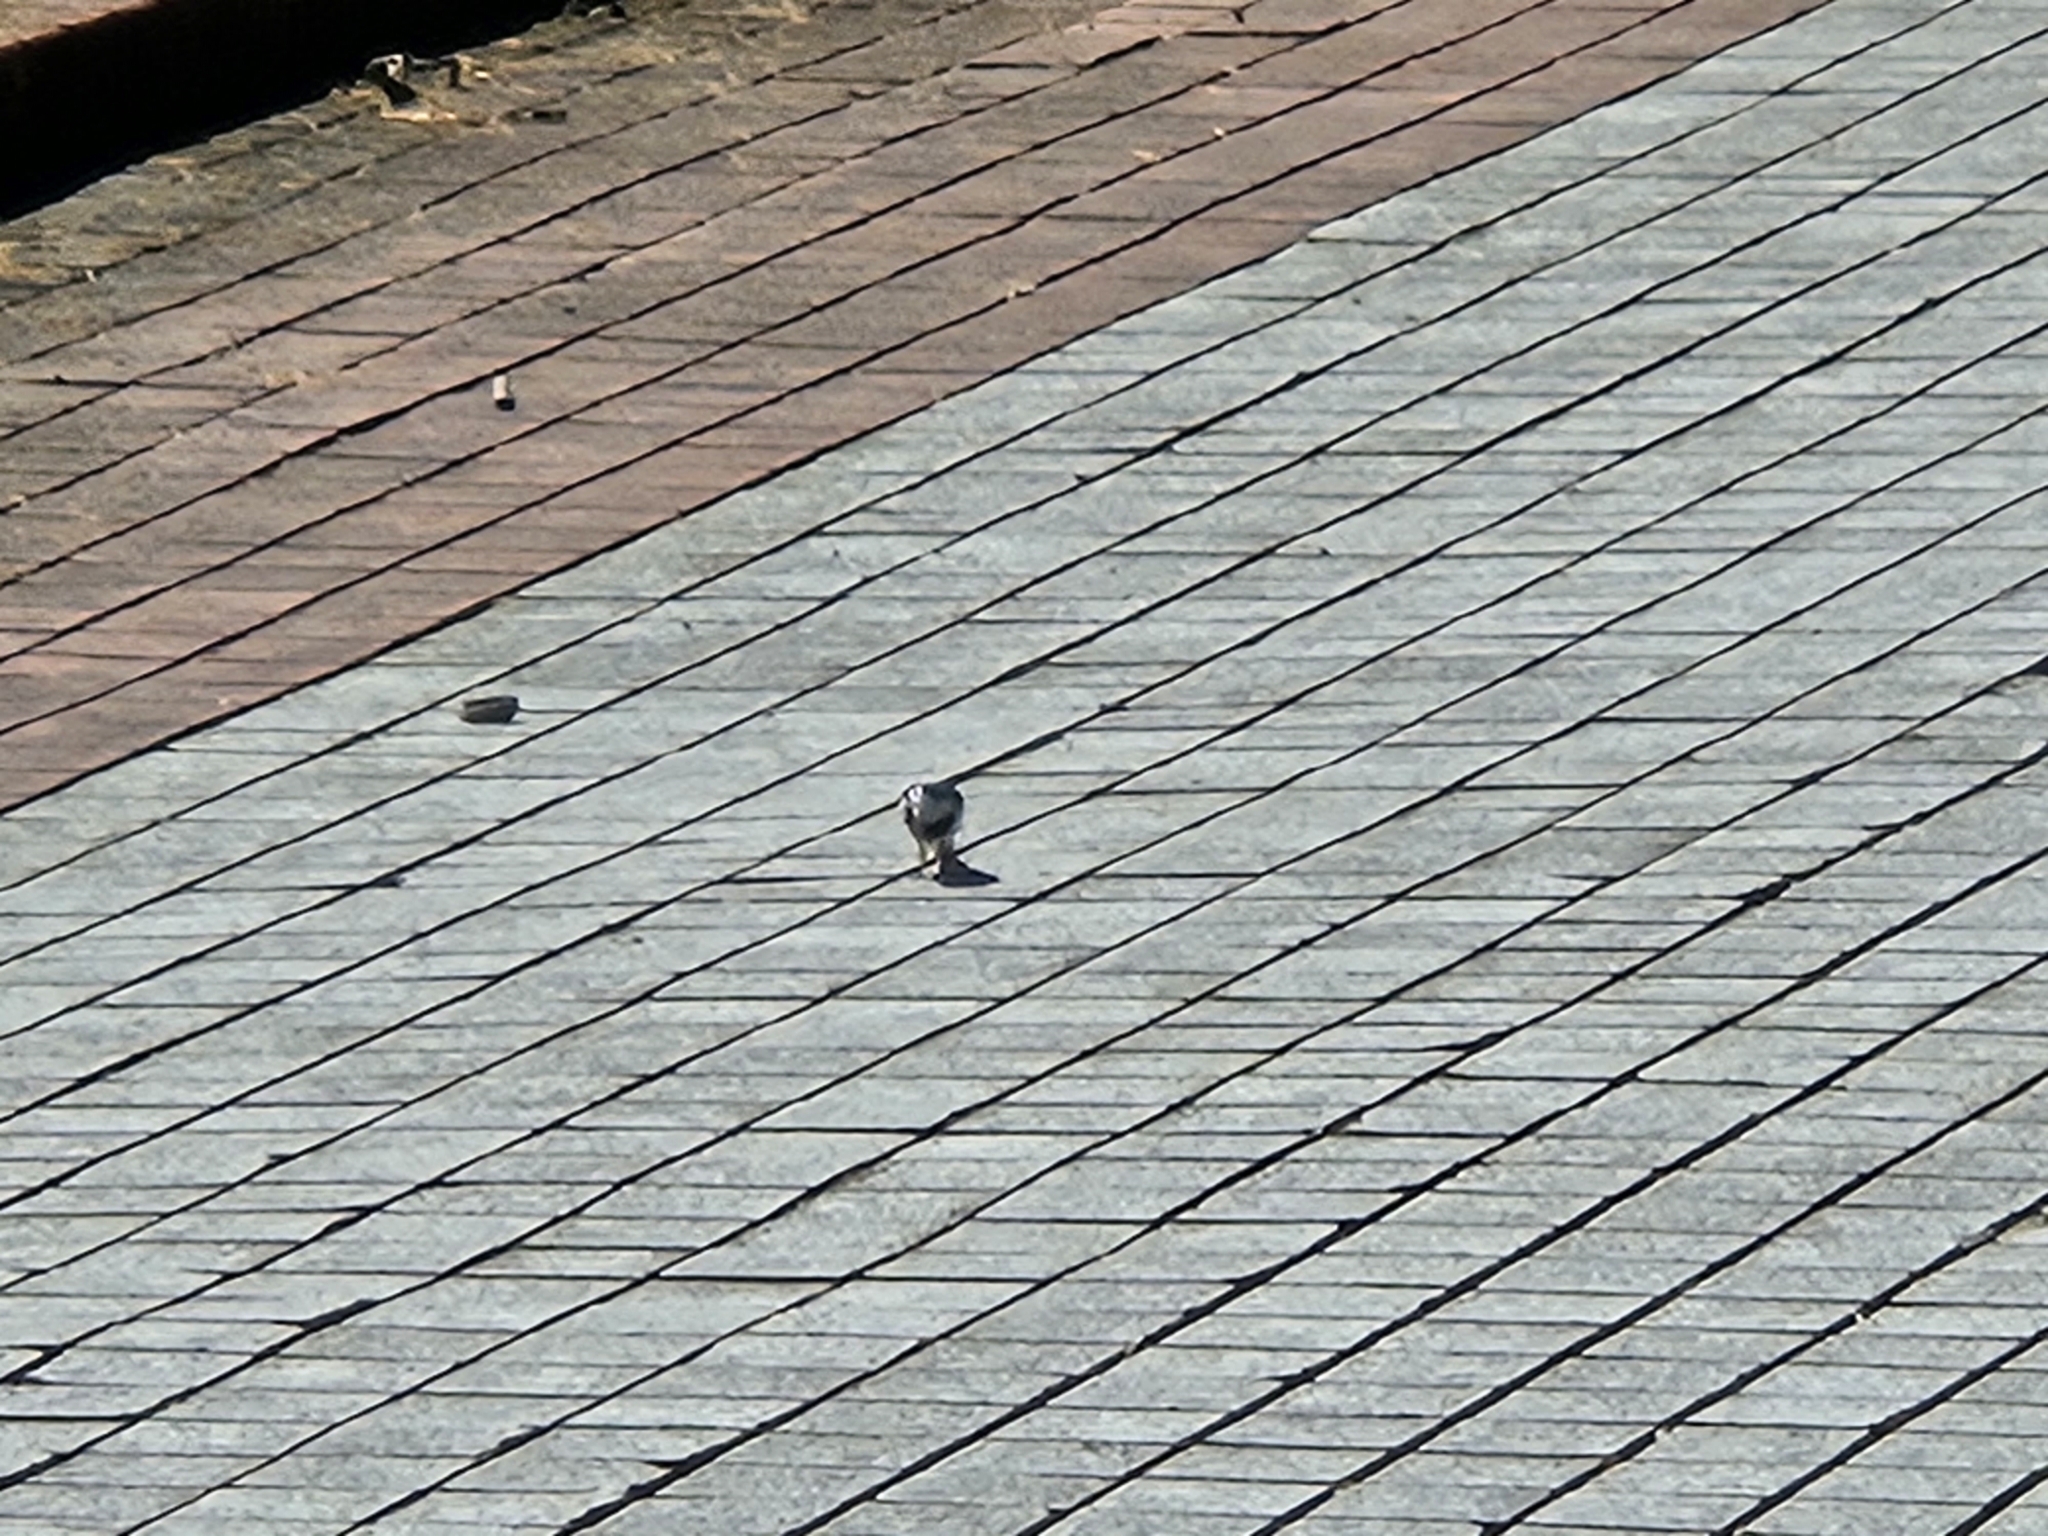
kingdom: Animalia
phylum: Chordata
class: Aves
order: Passeriformes
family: Motacillidae
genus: Motacilla
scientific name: Motacilla alba
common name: White wagtail
